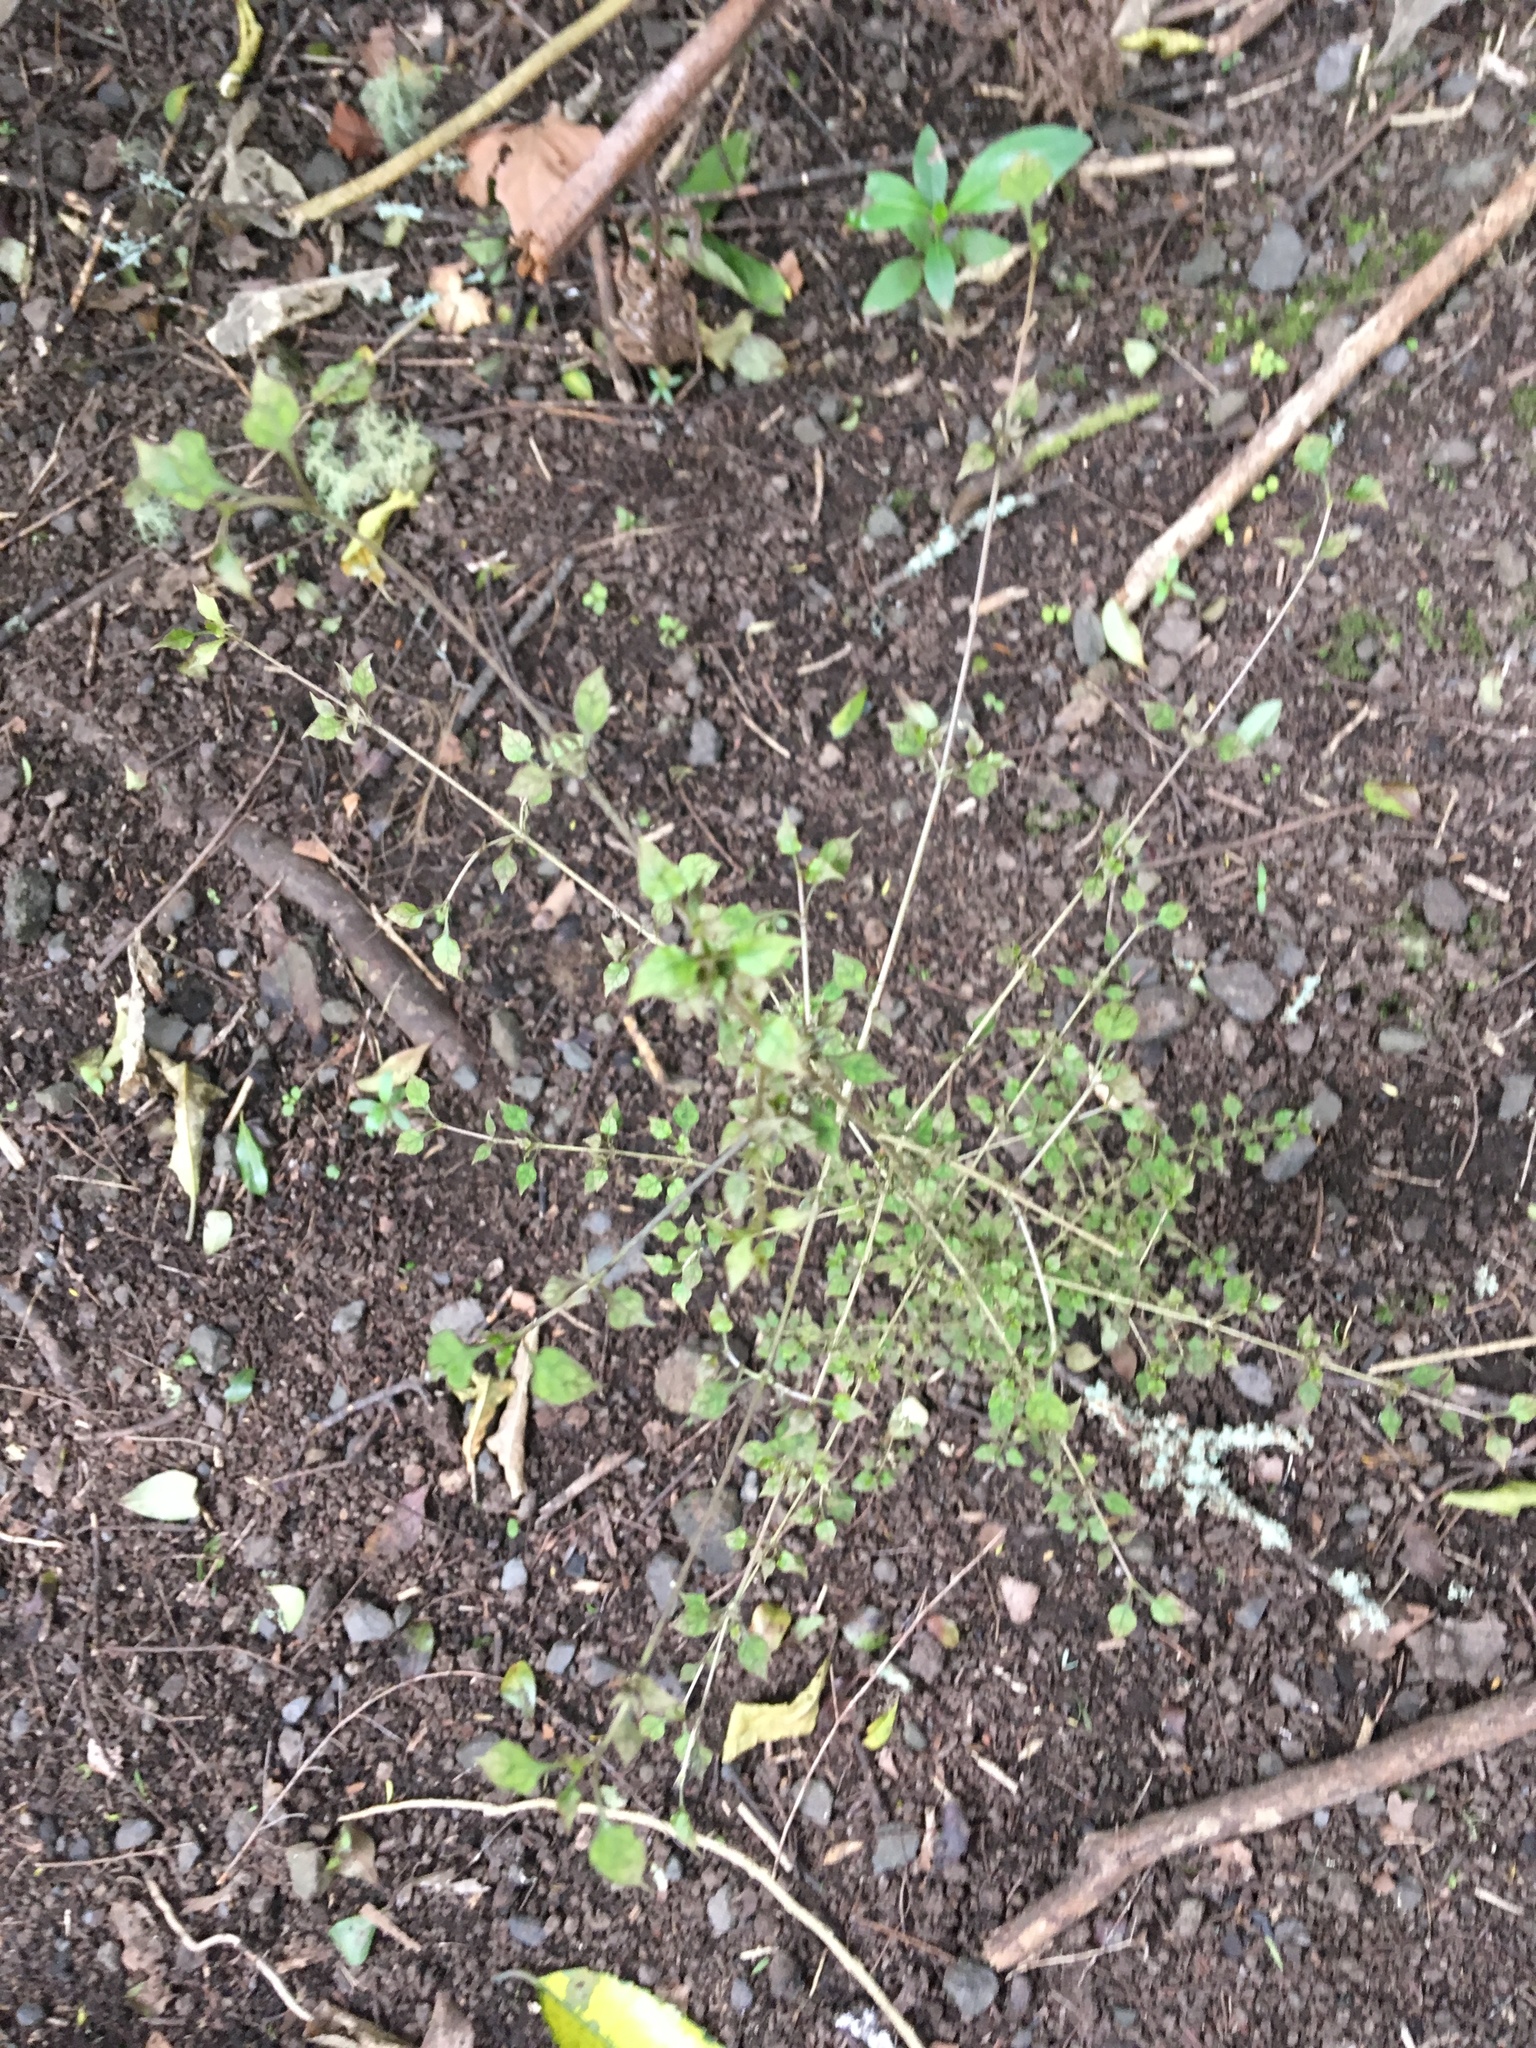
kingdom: Plantae
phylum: Tracheophyta
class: Magnoliopsida
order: Gentianales
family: Rubiaceae
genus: Coprosma
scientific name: Coprosma areolata
